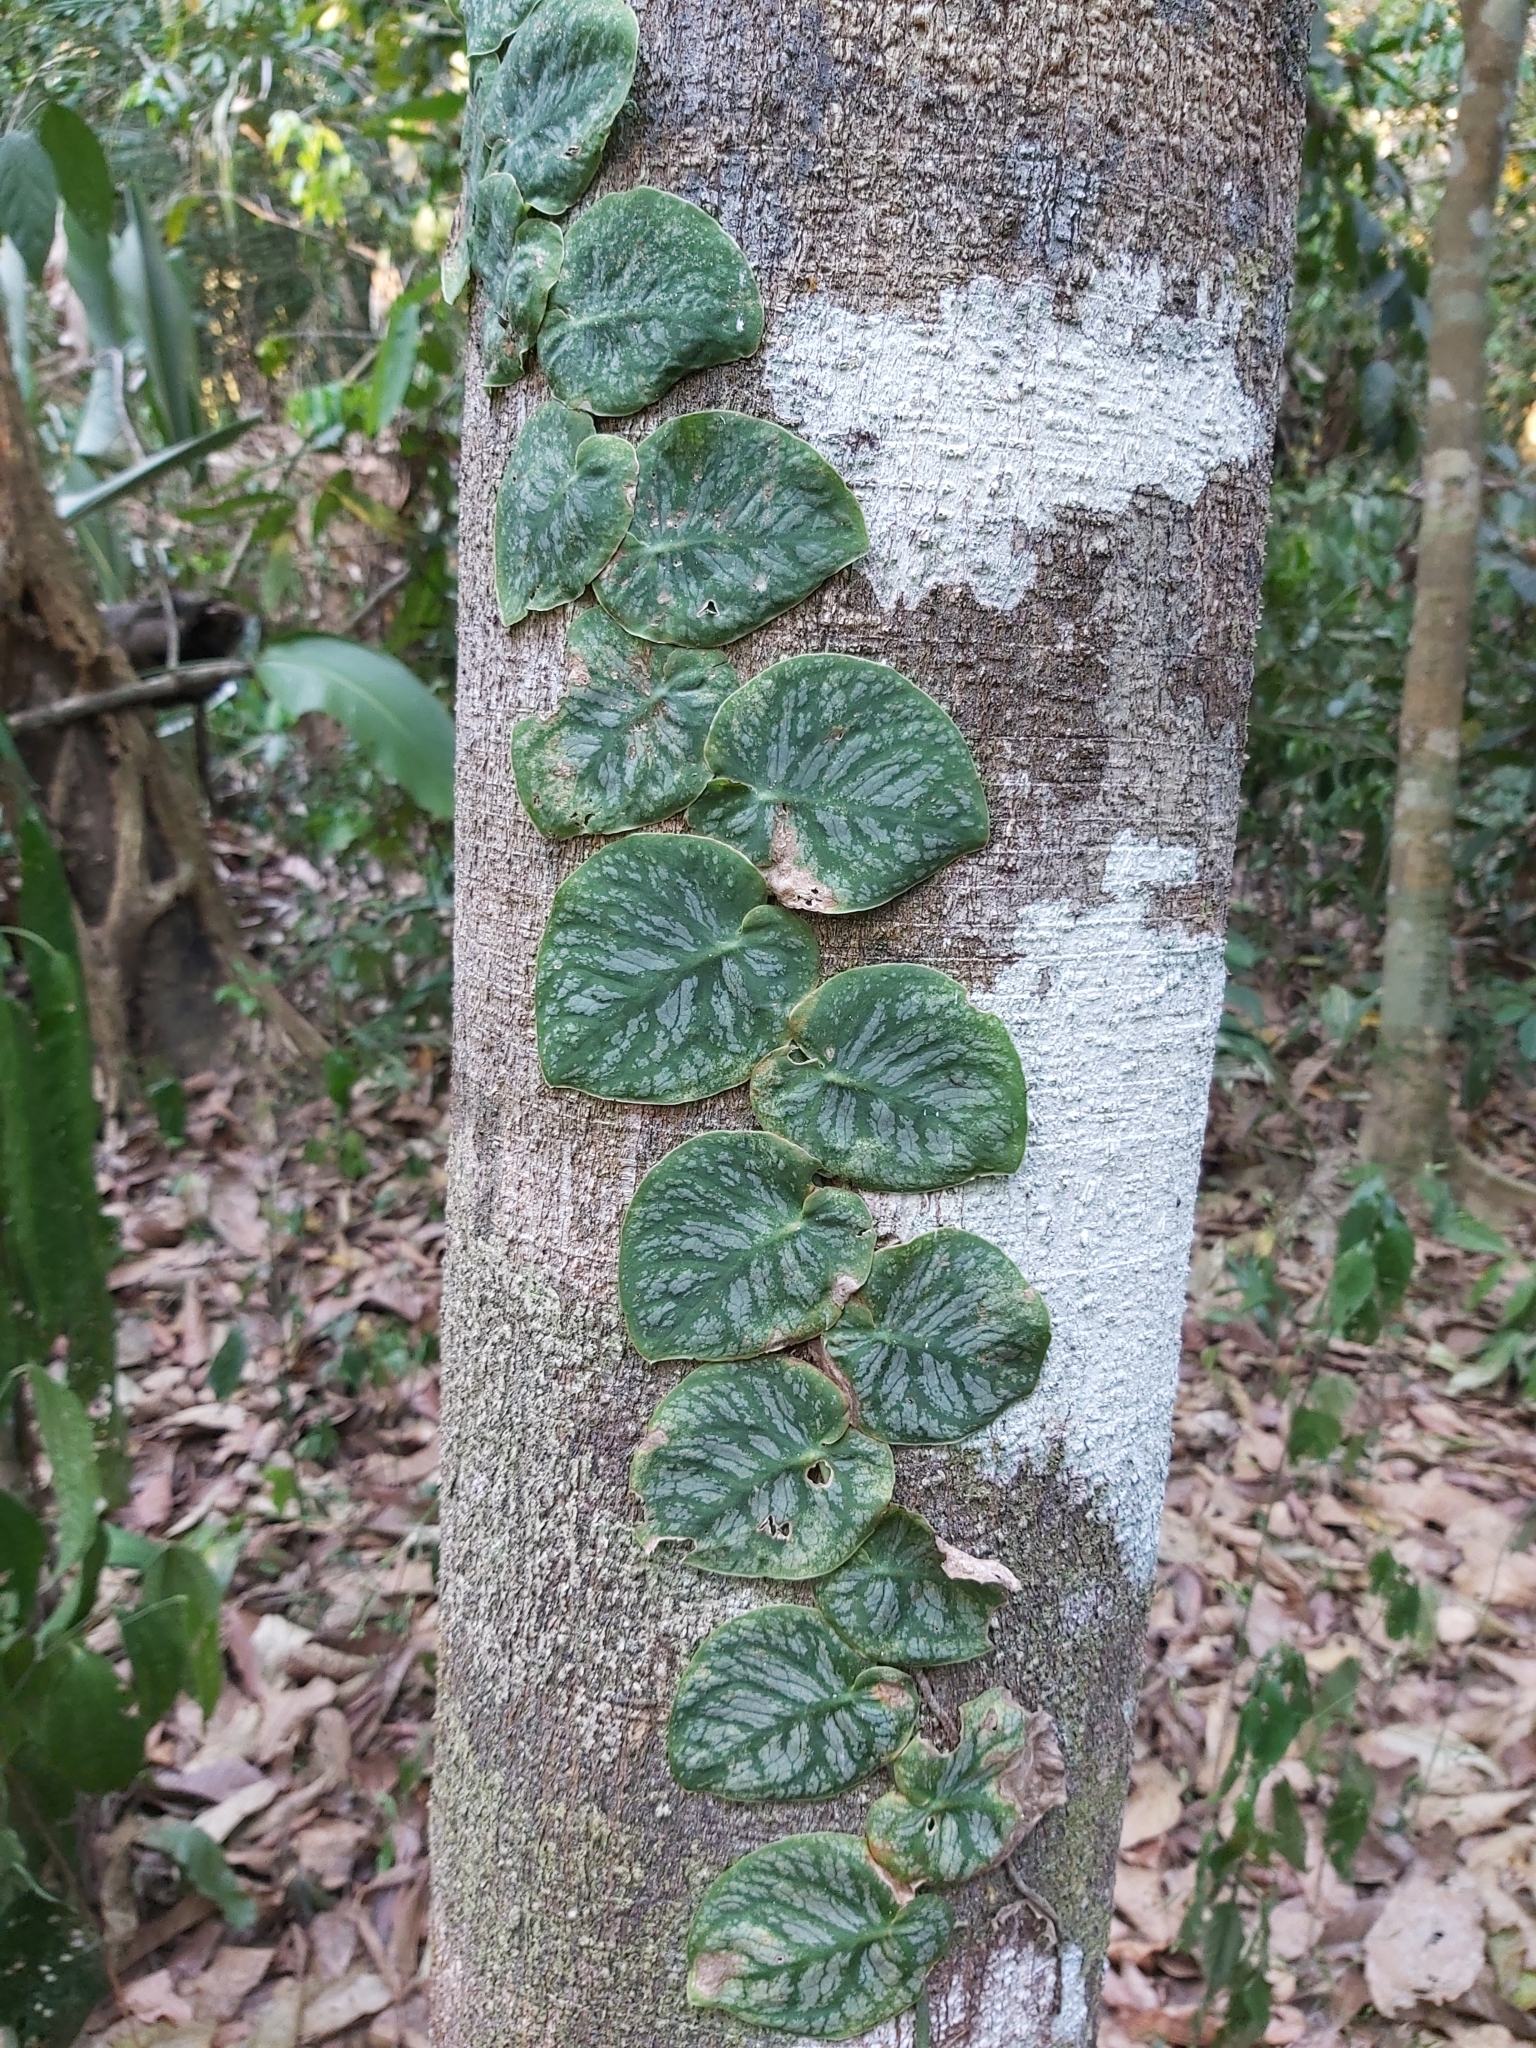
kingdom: Plantae
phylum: Tracheophyta
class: Liliopsida
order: Alismatales
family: Araceae
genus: Monstera
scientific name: Monstera dubia
